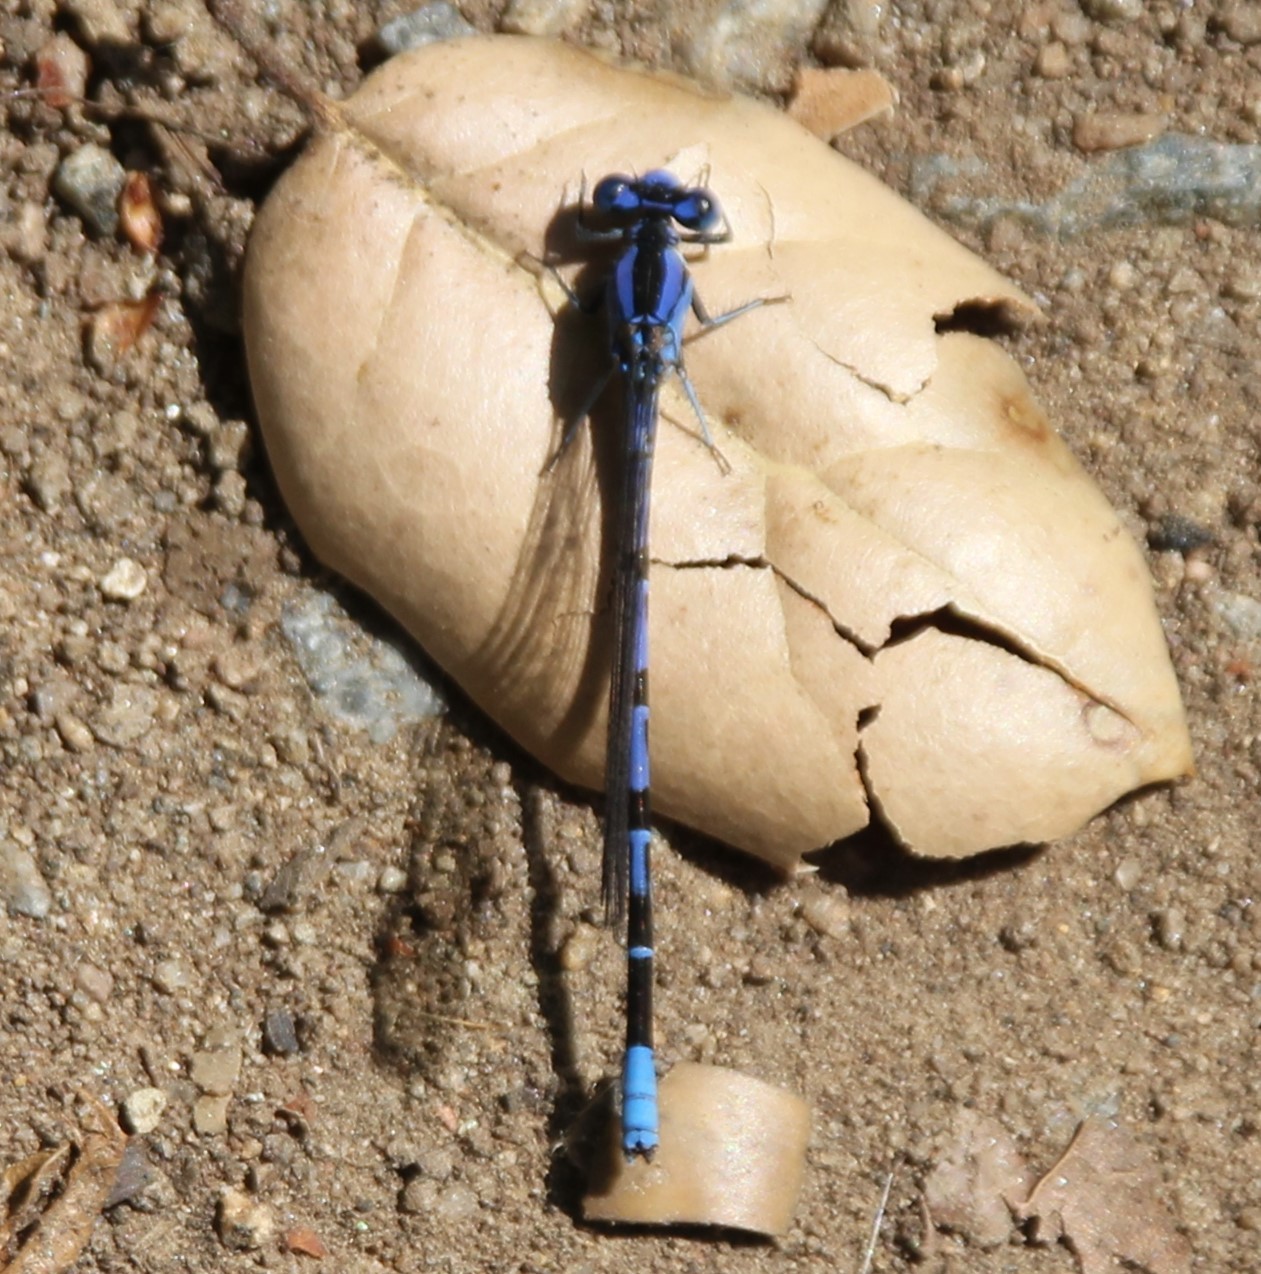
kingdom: Animalia
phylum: Arthropoda
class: Insecta
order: Odonata
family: Coenagrionidae
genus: Argia
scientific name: Argia vivida
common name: Vivid dancer
